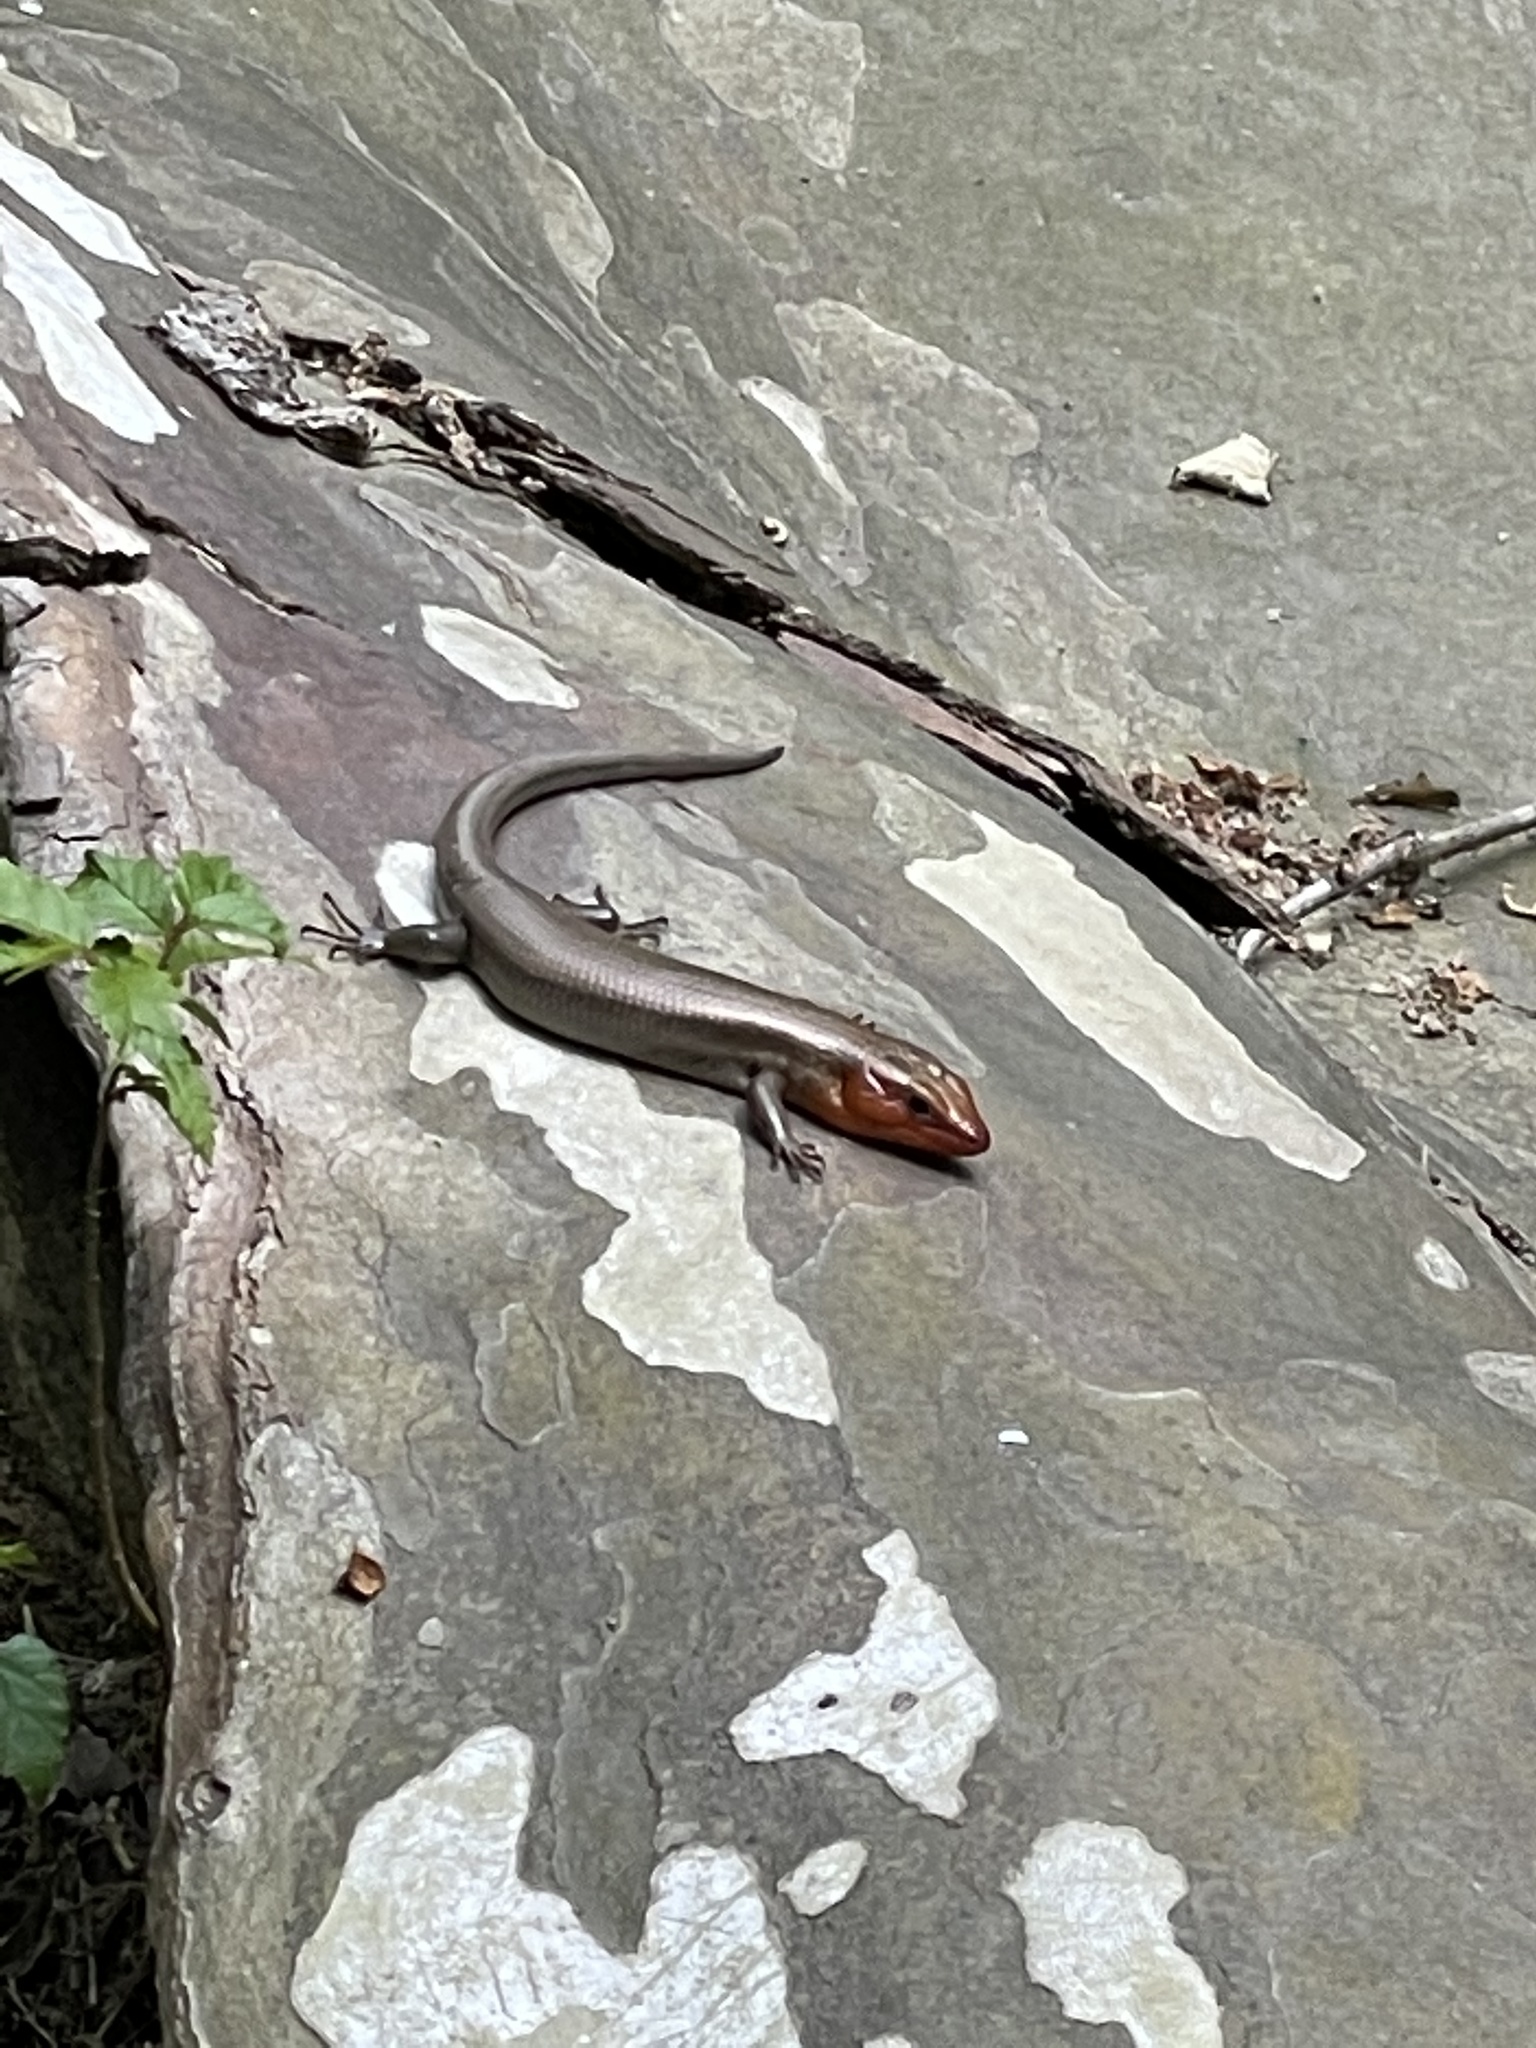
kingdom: Animalia
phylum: Chordata
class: Squamata
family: Scincidae
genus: Plestiodon
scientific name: Plestiodon fasciatus
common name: Five-lined skink
